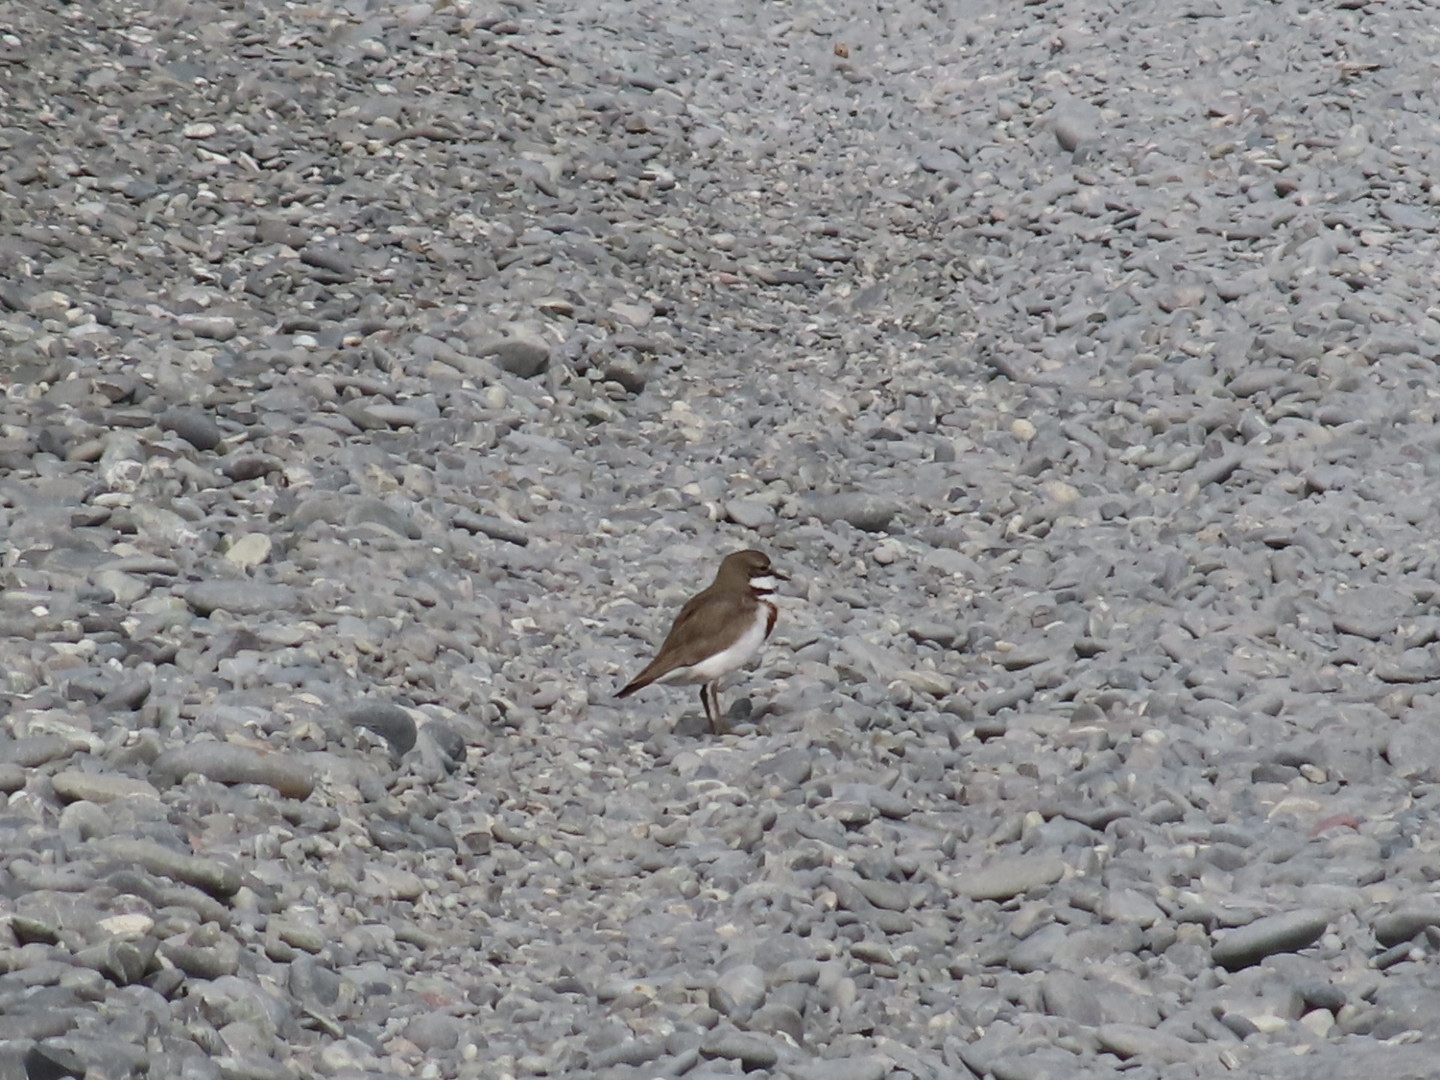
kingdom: Animalia
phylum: Chordata
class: Aves
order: Charadriiformes
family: Charadriidae
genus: Anarhynchus
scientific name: Anarhynchus
